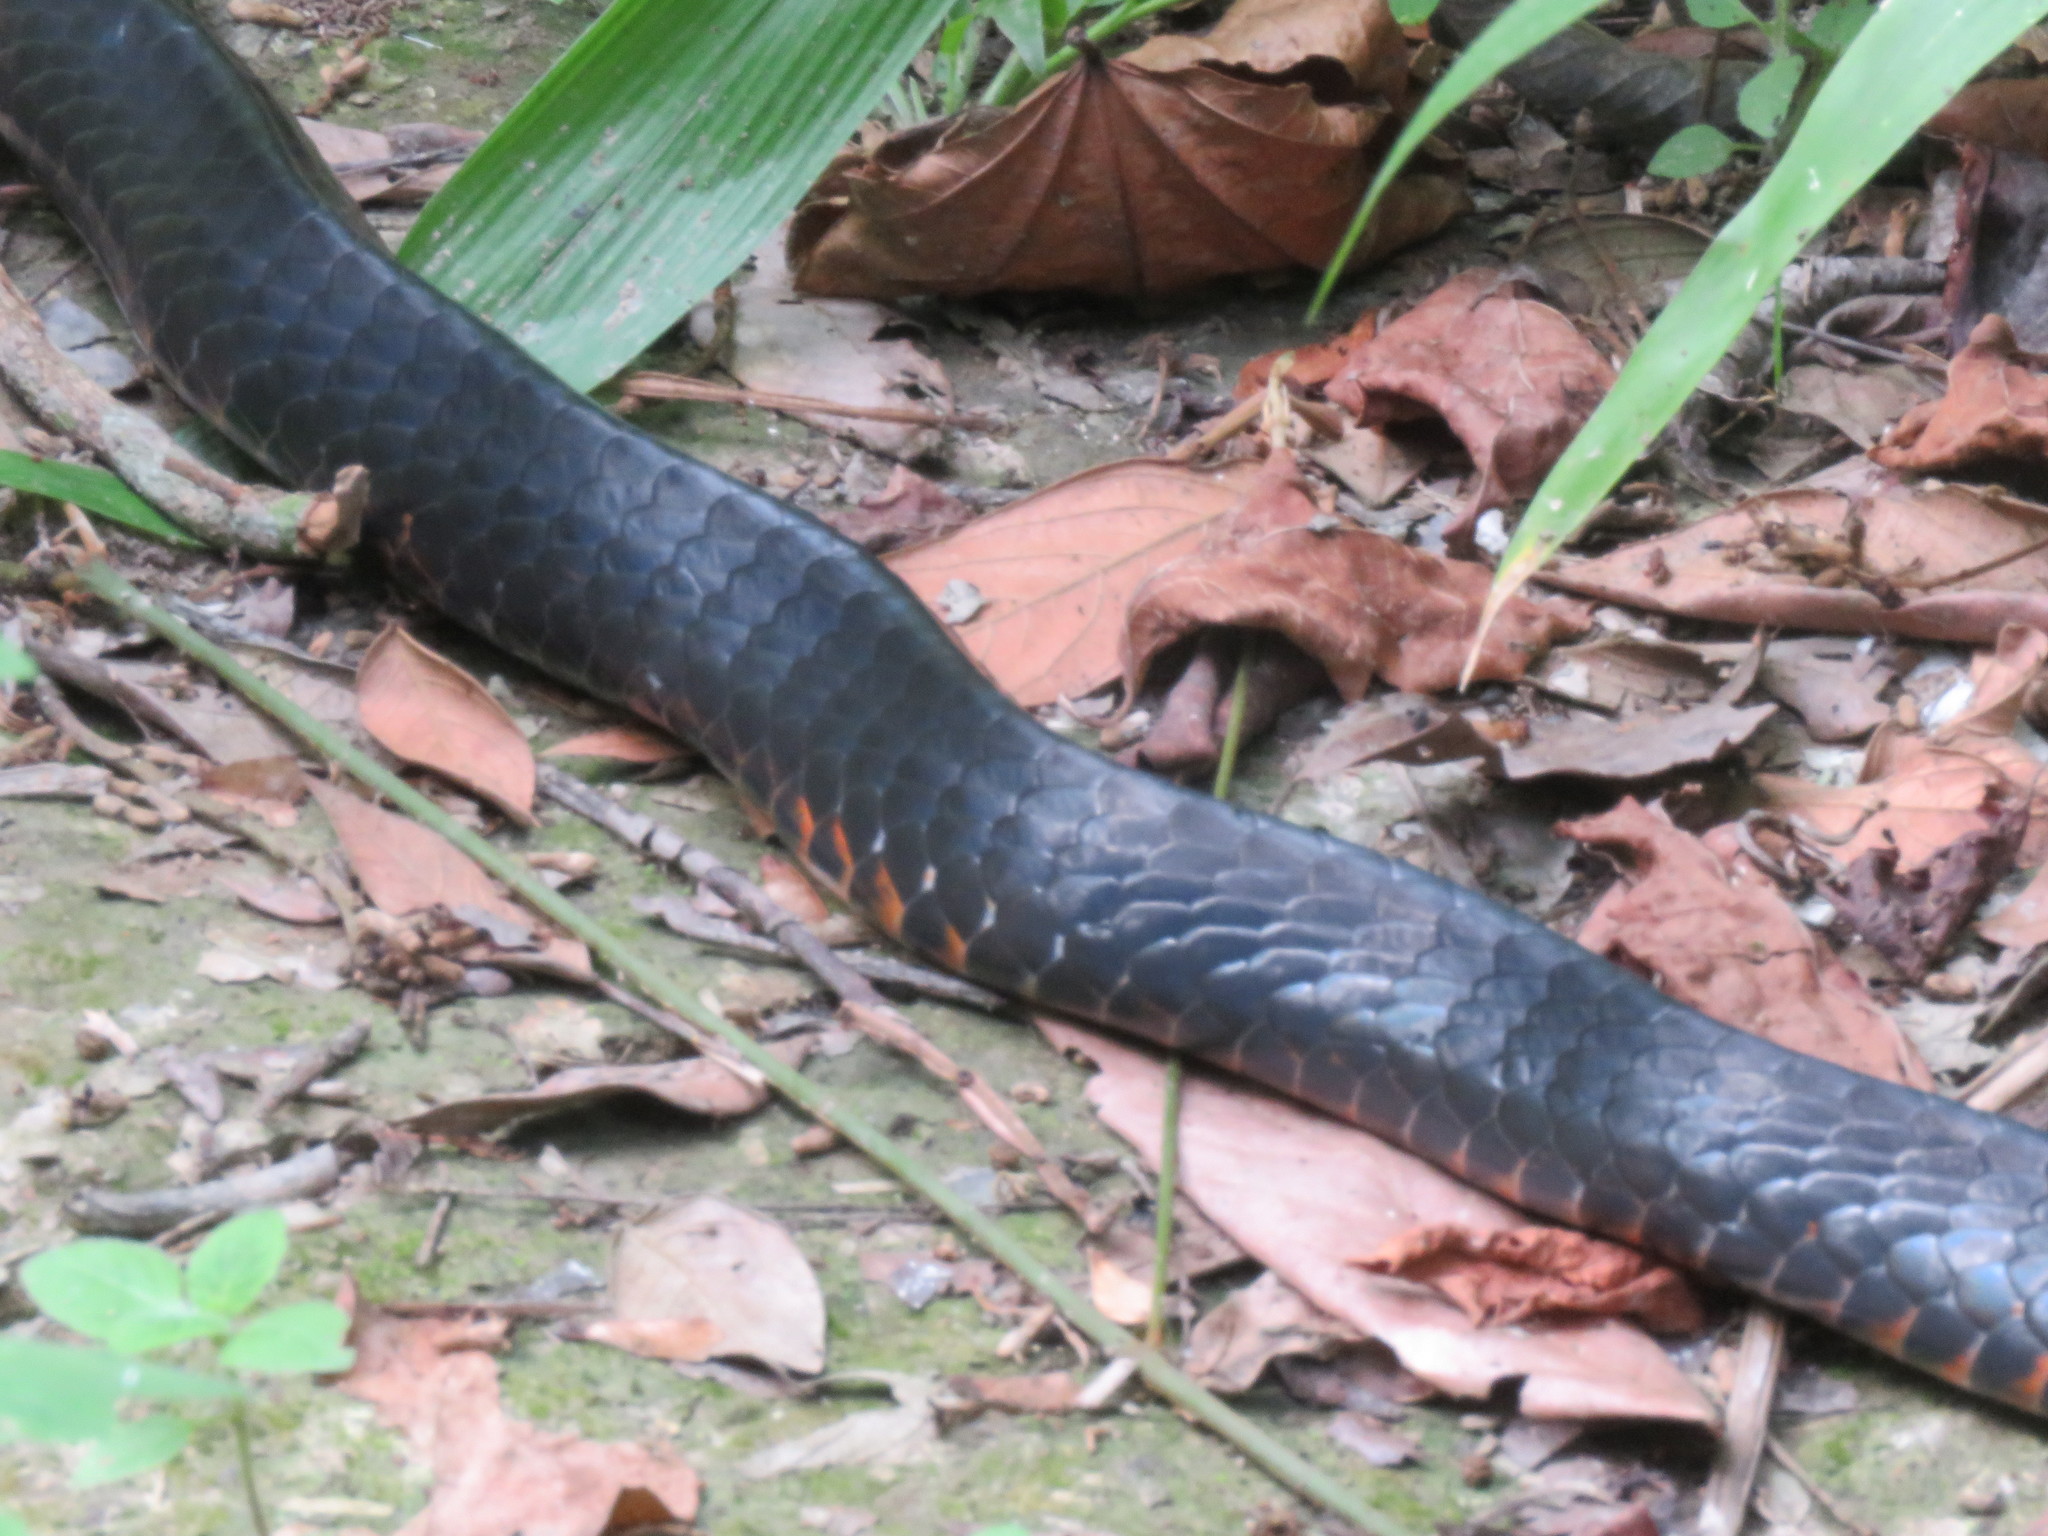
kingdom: Animalia
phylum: Chordata
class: Squamata
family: Colubridae
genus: Chironius
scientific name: Chironius scurrulus
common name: Wagler's sipo
